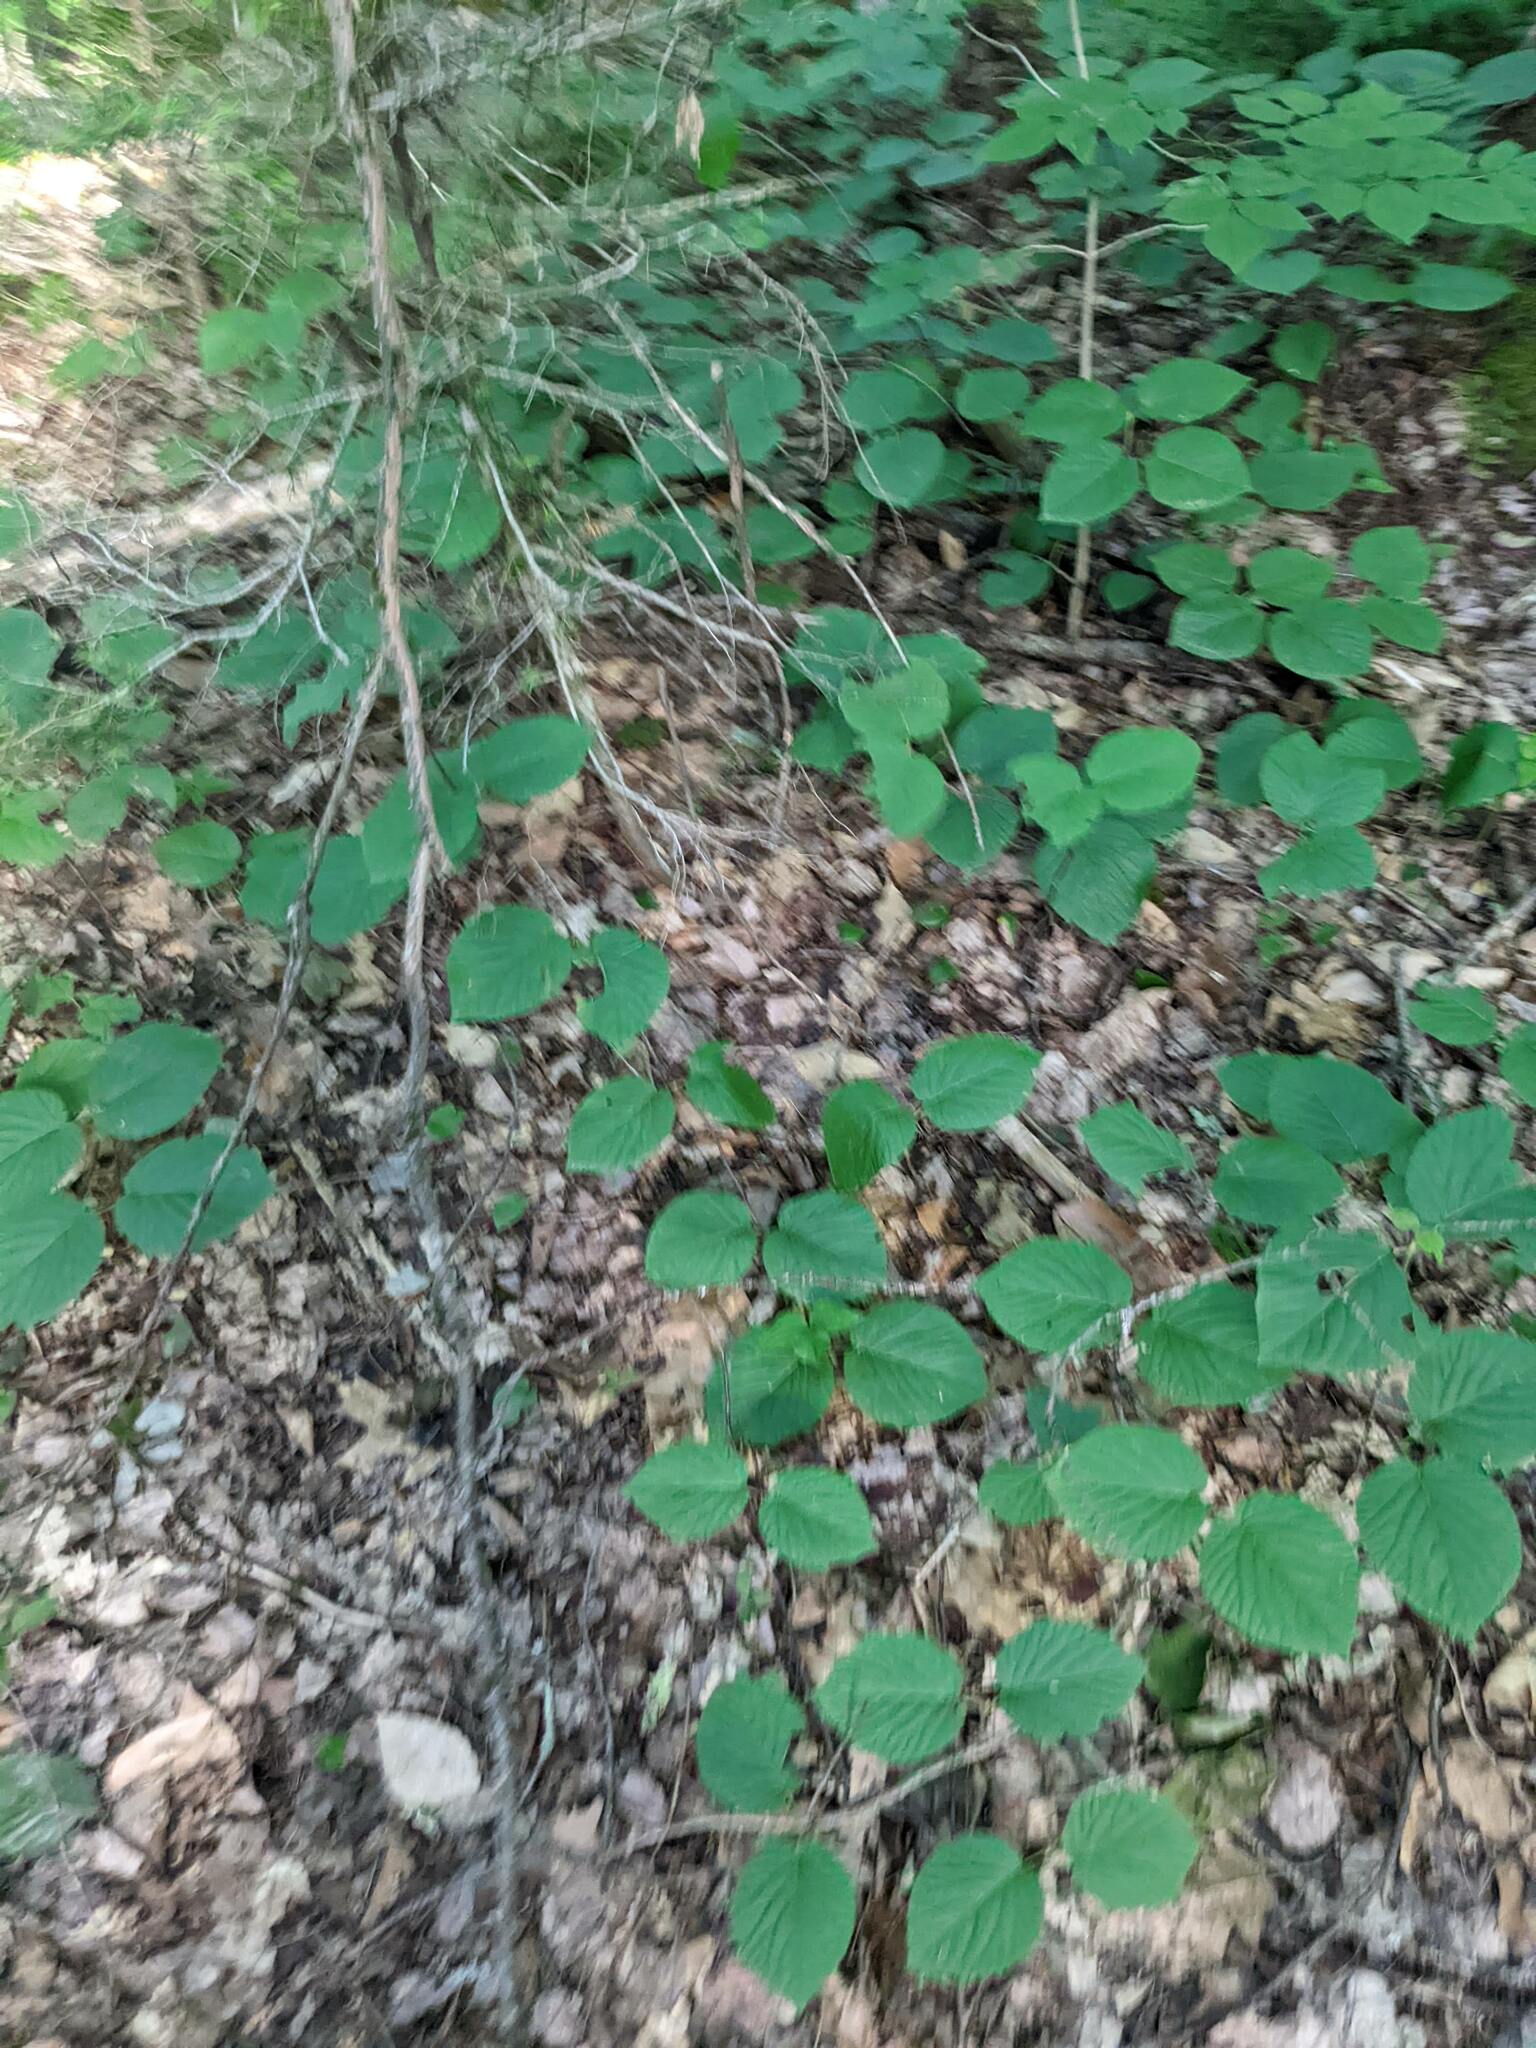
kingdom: Plantae
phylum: Tracheophyta
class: Magnoliopsida
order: Dipsacales
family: Viburnaceae
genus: Viburnum
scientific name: Viburnum lantanoides
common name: Hobblebush
